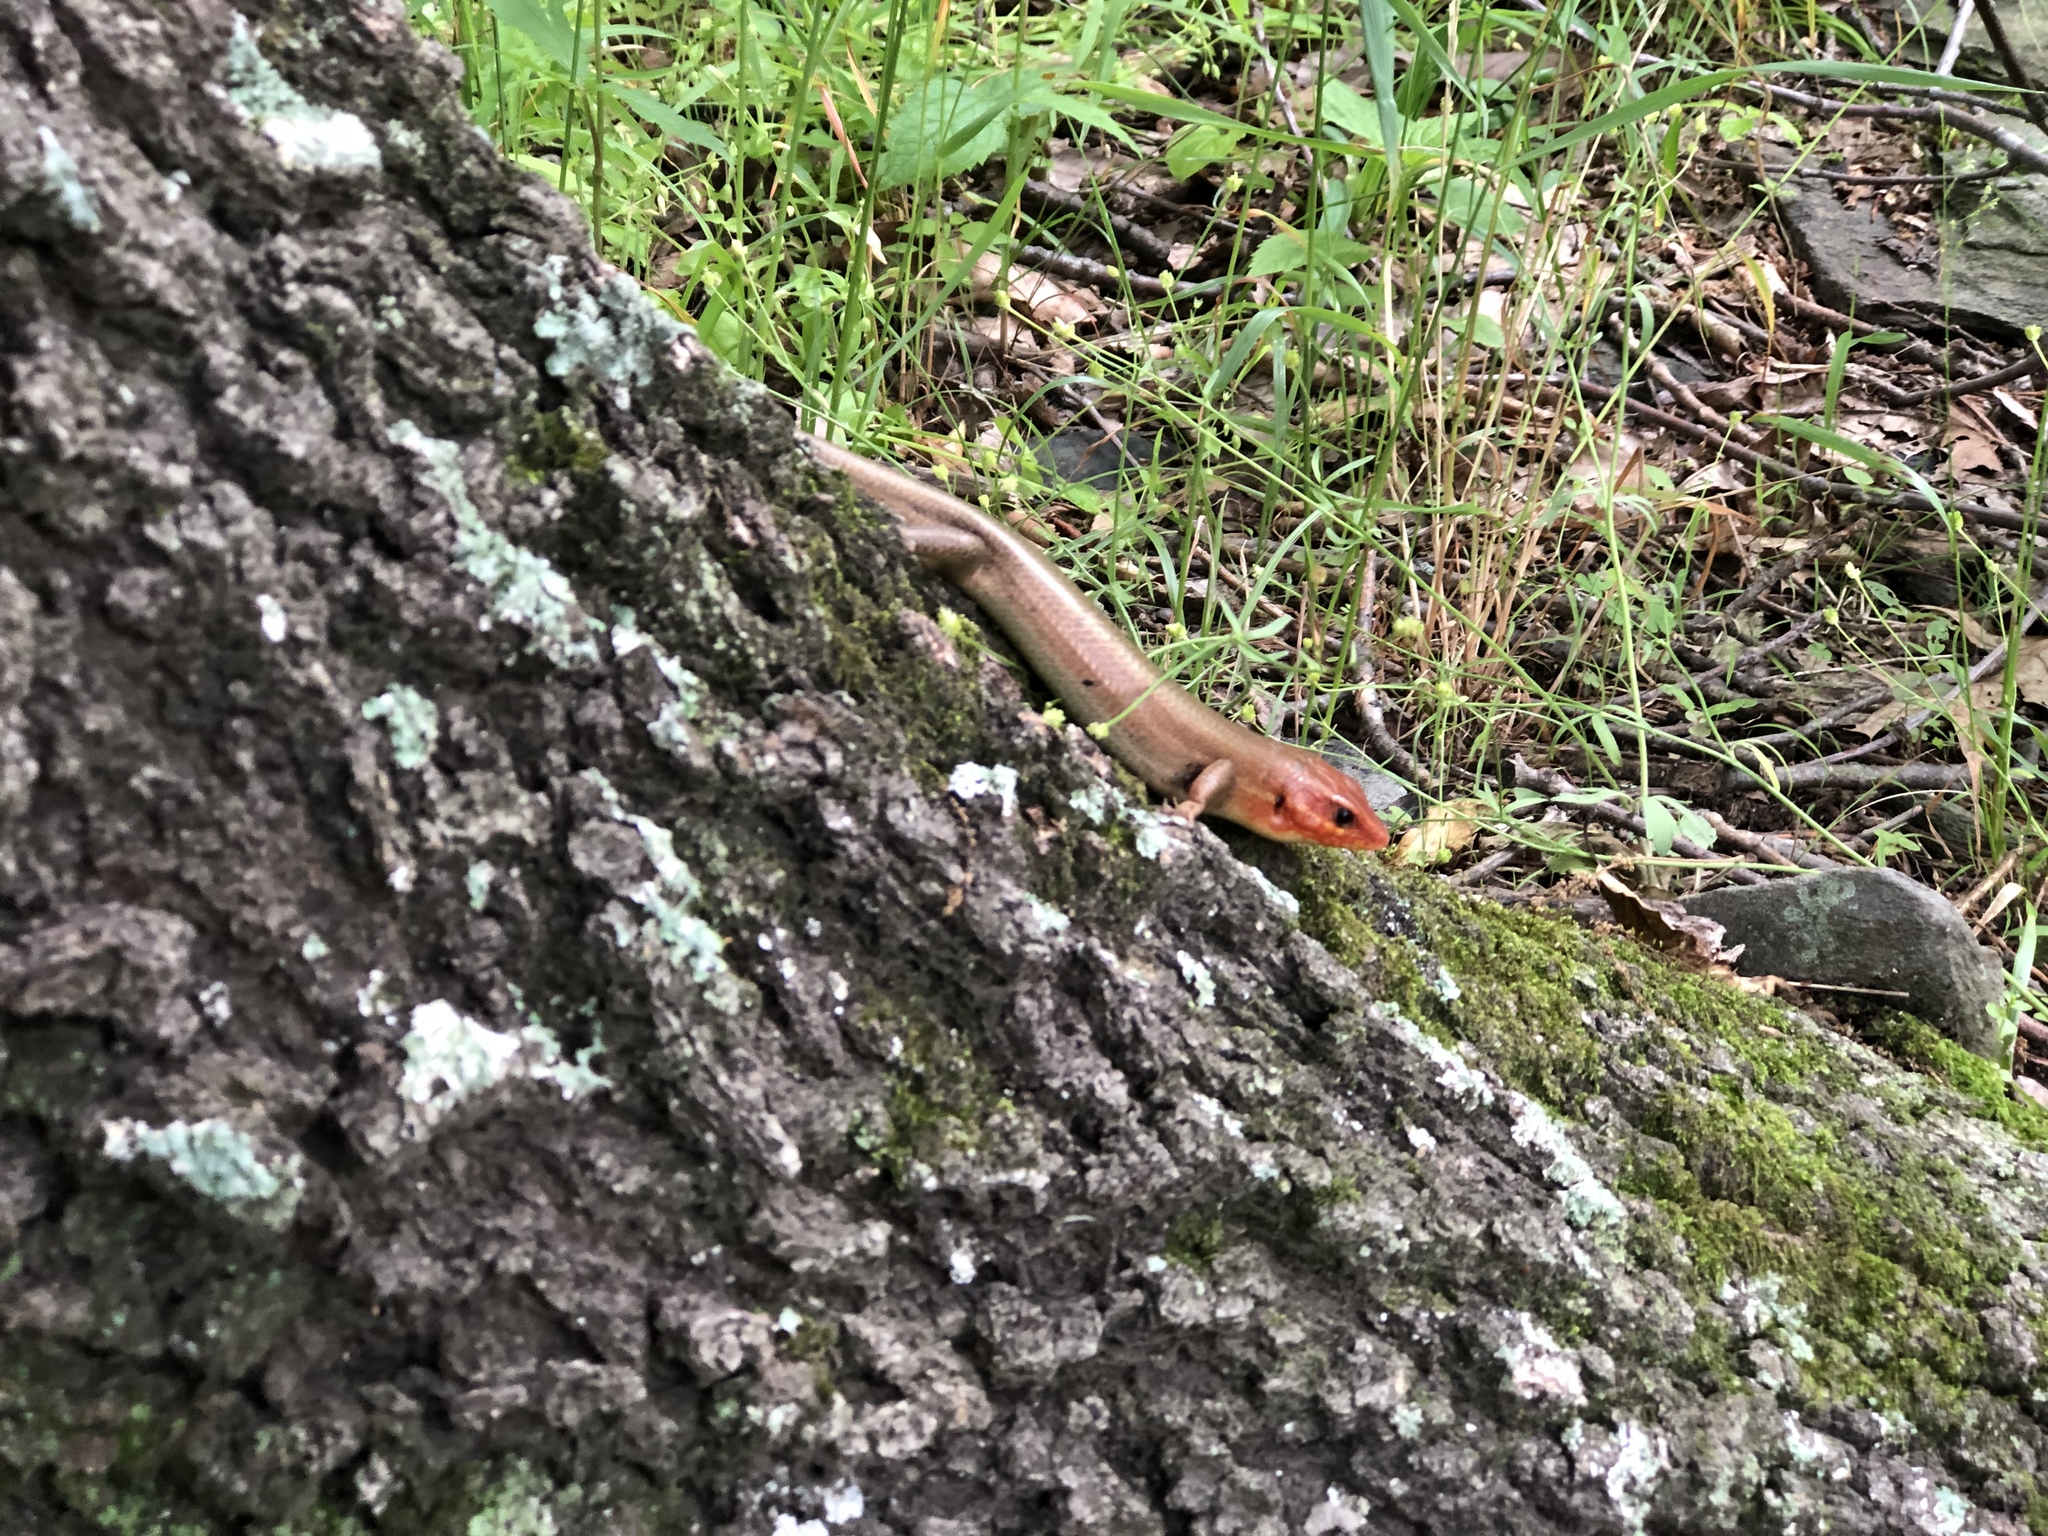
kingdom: Animalia
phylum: Chordata
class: Squamata
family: Scincidae
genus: Plestiodon
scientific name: Plestiodon laticeps
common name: Broadhead skink
